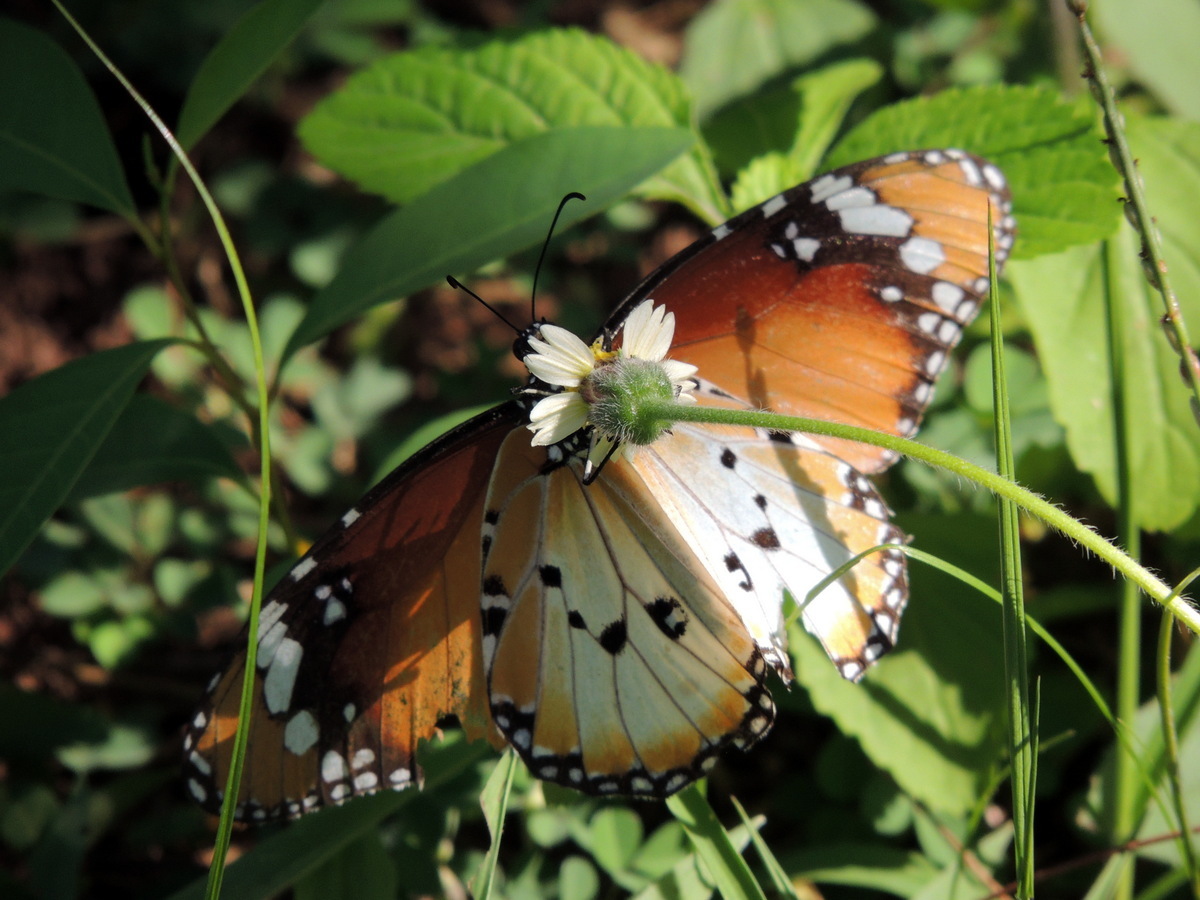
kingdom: Animalia
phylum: Arthropoda
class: Insecta
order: Lepidoptera
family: Nymphalidae
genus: Danaus
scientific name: Danaus chrysippus
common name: Plain tiger
